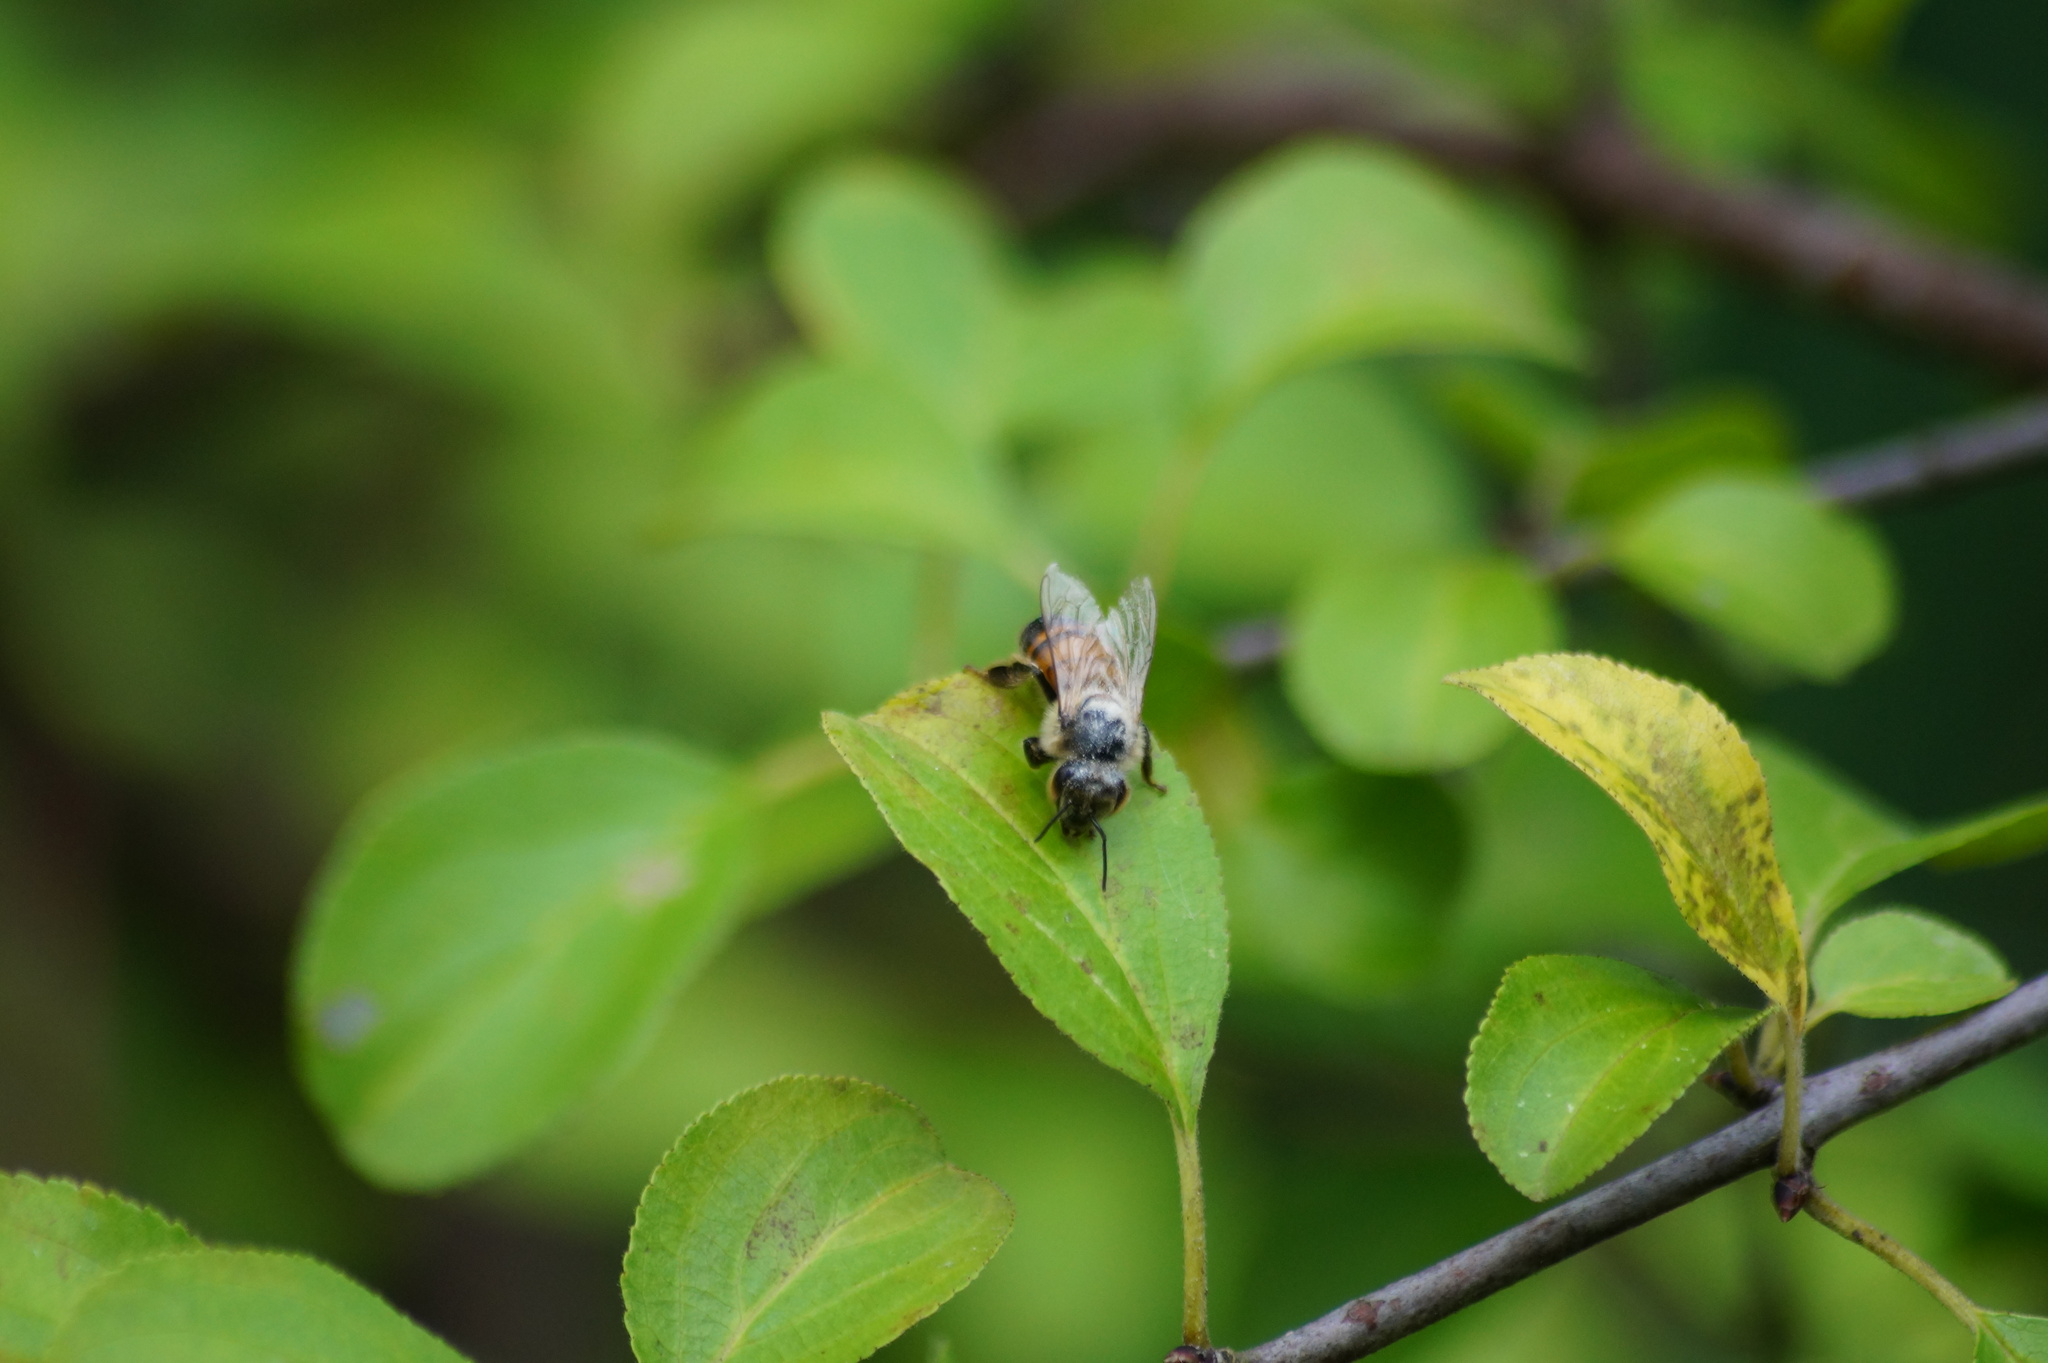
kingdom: Animalia
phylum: Arthropoda
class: Insecta
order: Hymenoptera
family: Apidae
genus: Apis
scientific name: Apis mellifera
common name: Honey bee
